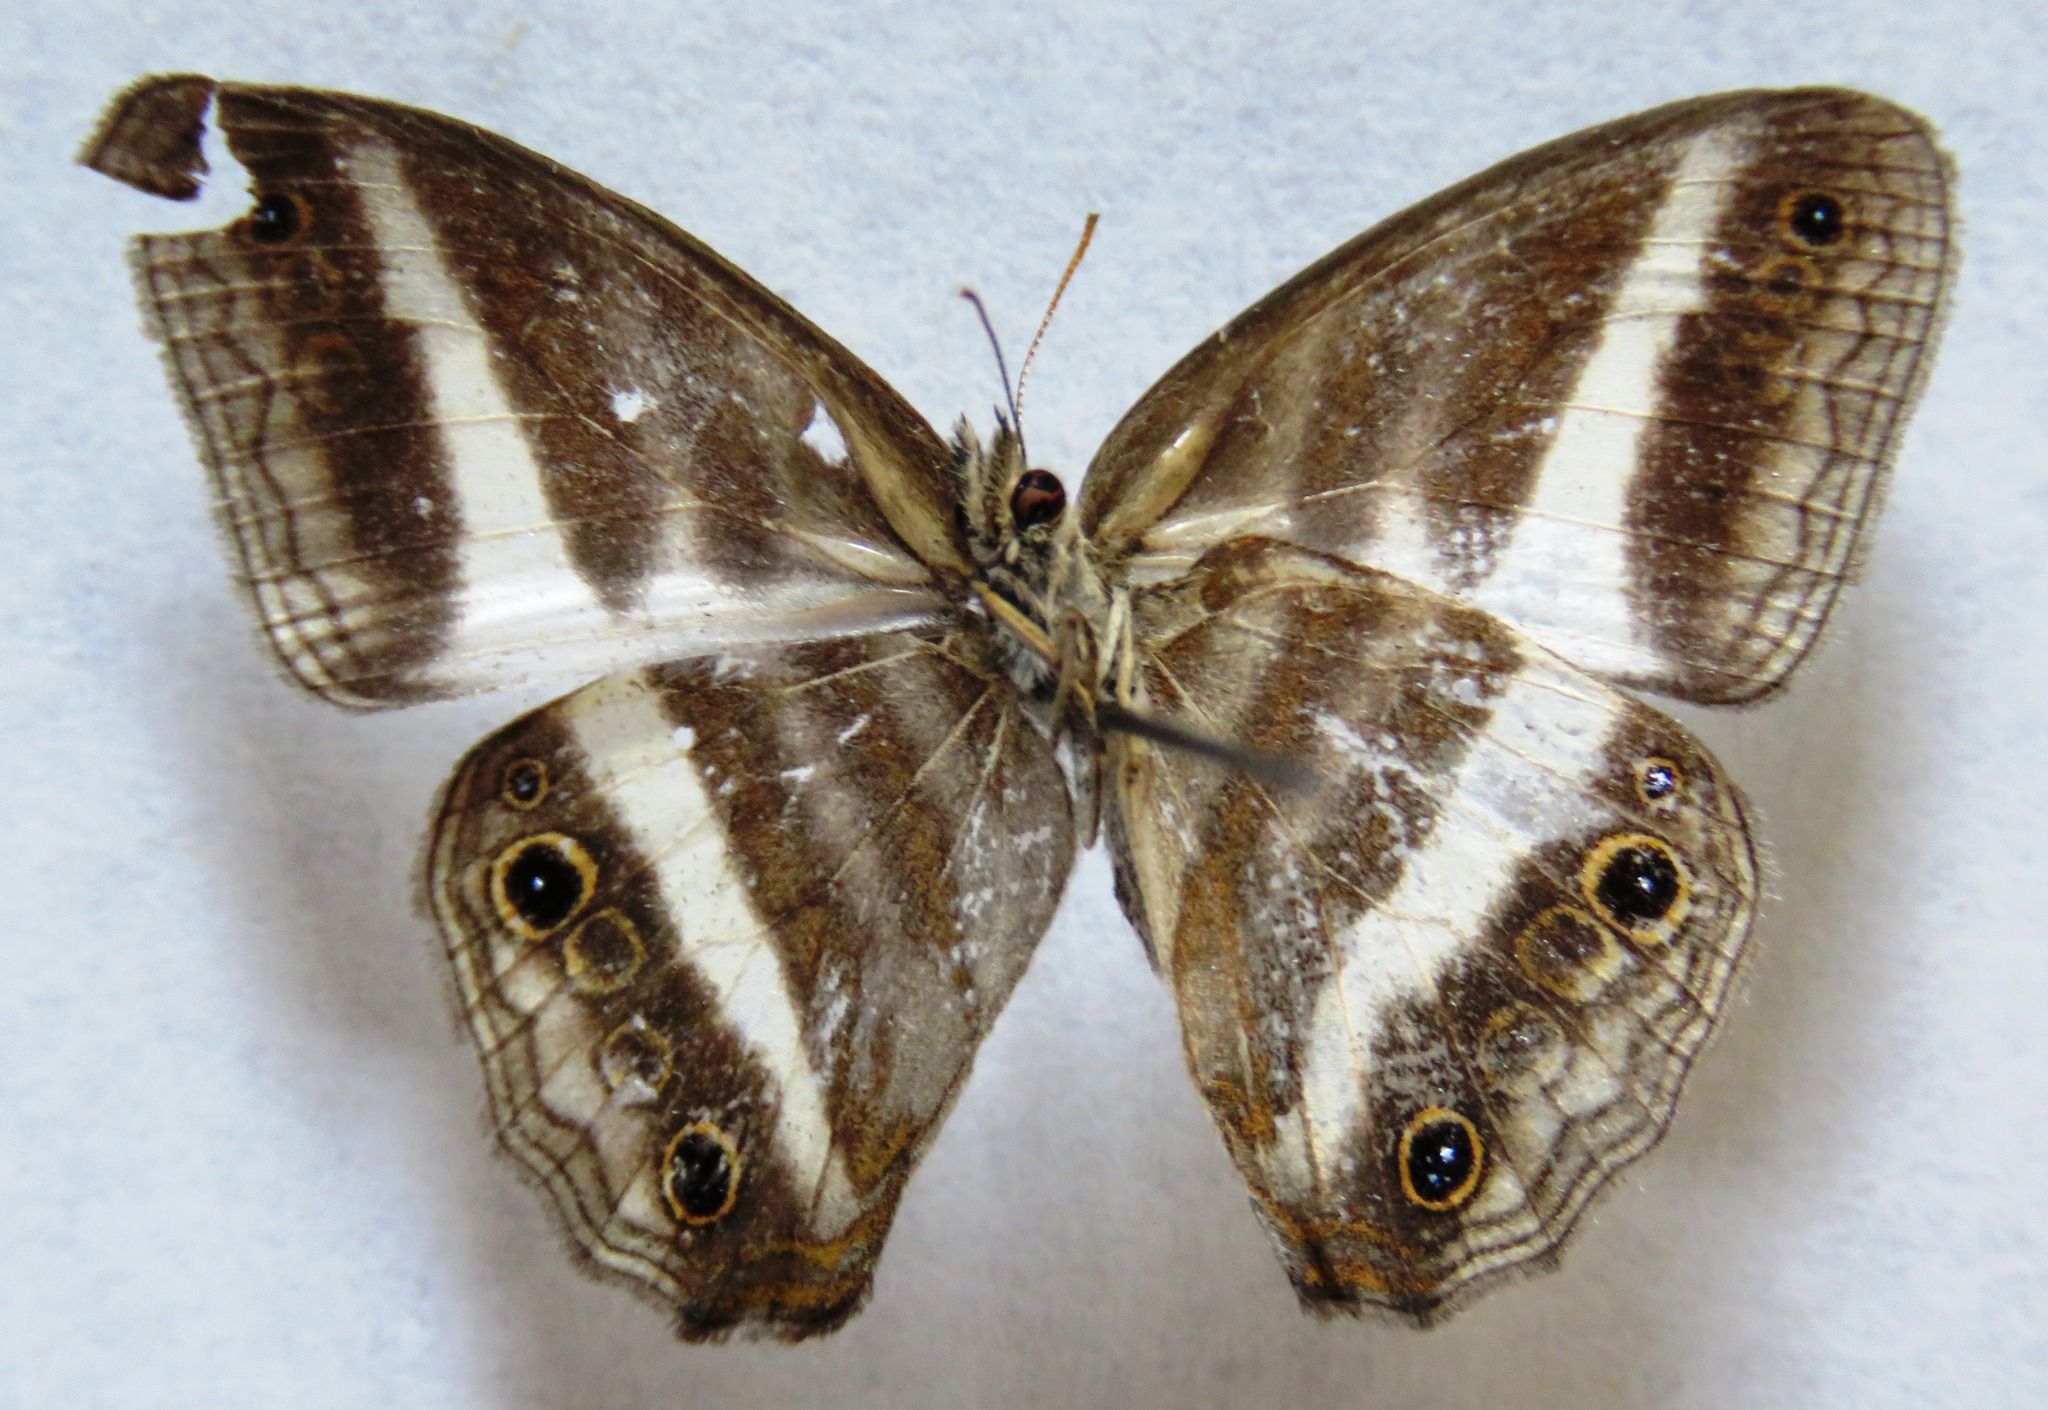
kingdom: Animalia
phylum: Arthropoda
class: Insecta
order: Lepidoptera
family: Nymphalidae
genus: Pareuptychia
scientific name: Pareuptychia hesione
